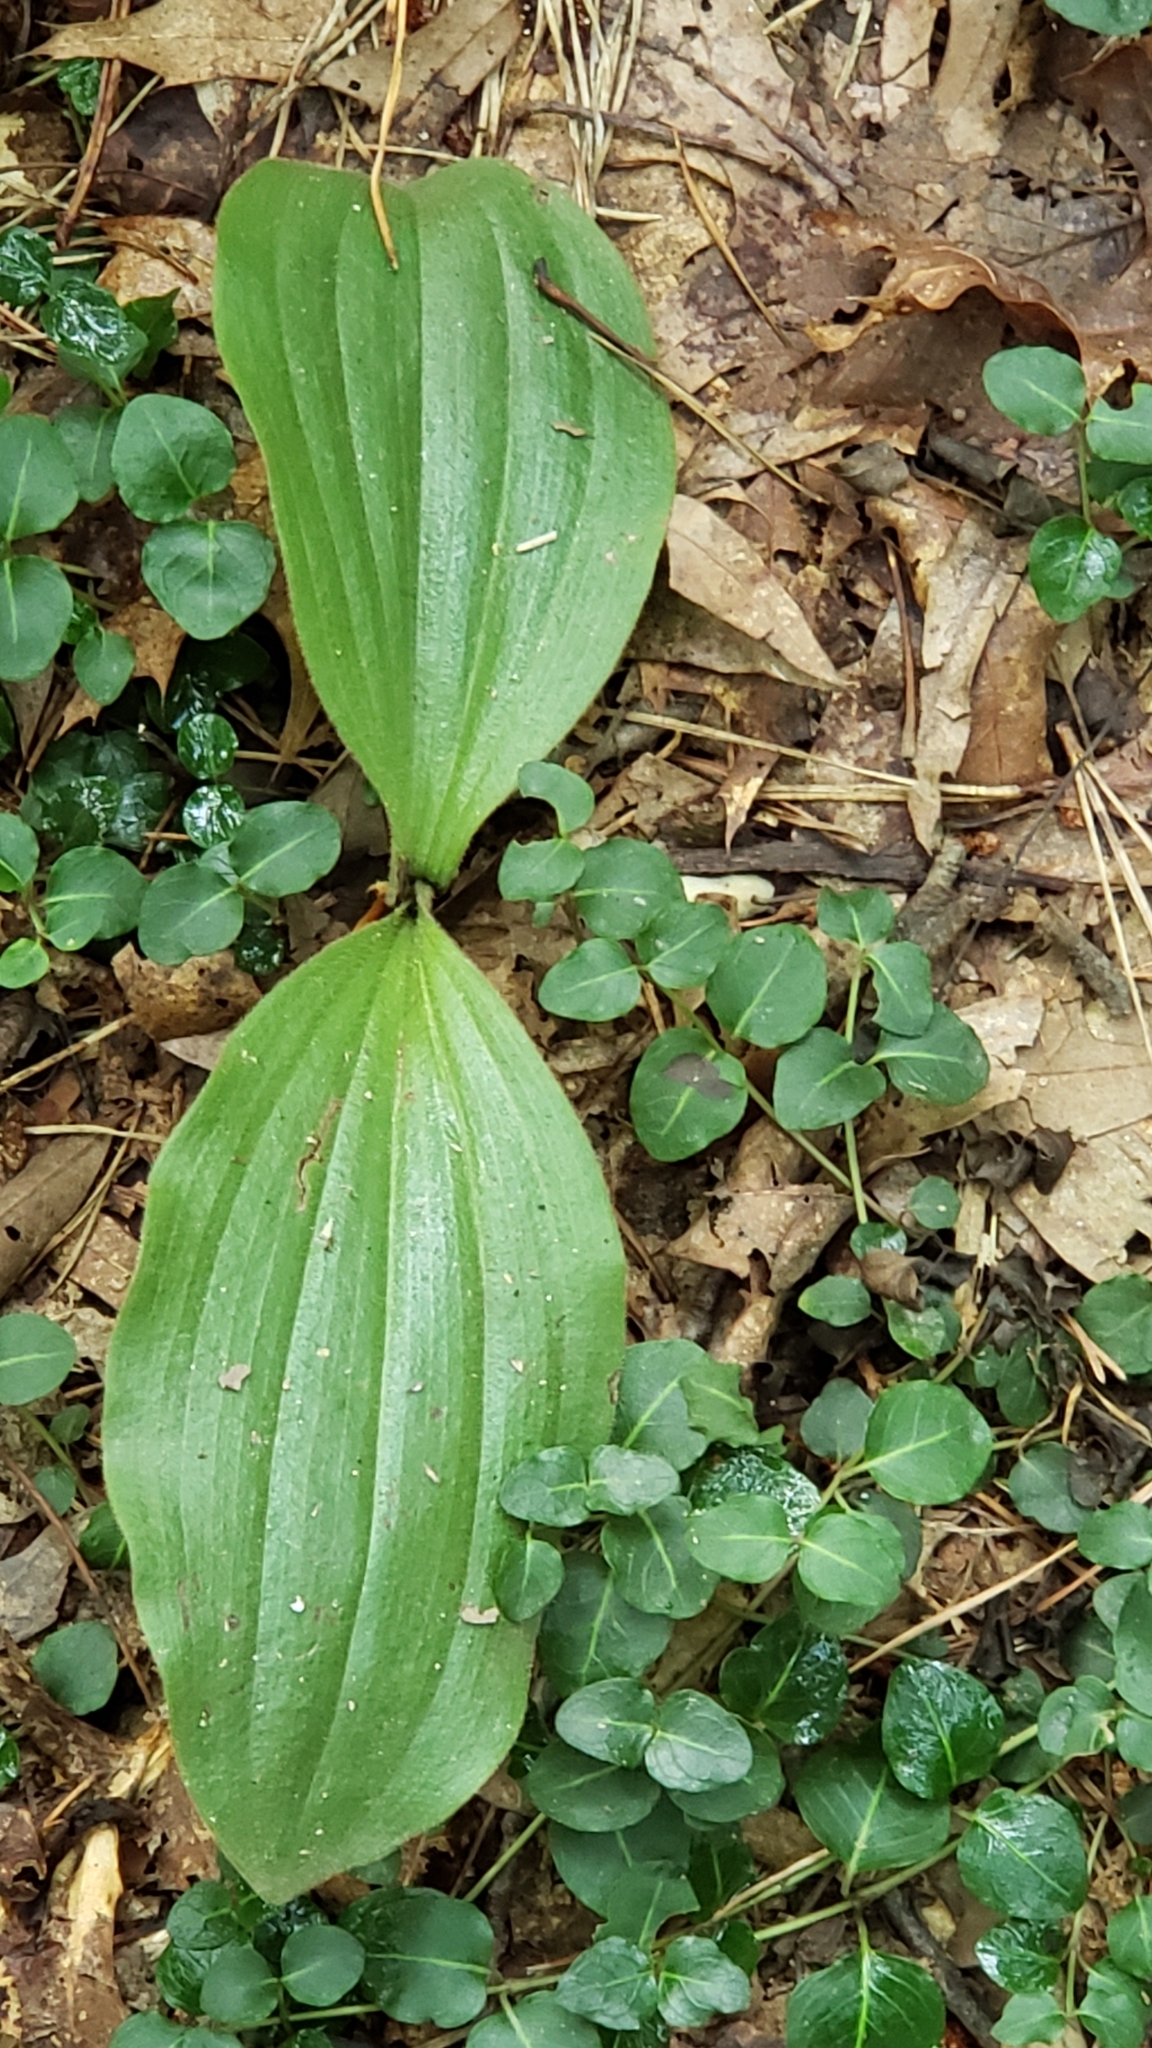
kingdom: Plantae
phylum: Tracheophyta
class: Liliopsida
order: Asparagales
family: Orchidaceae
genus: Cypripedium
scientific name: Cypripedium acaule
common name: Pink lady's-slipper
